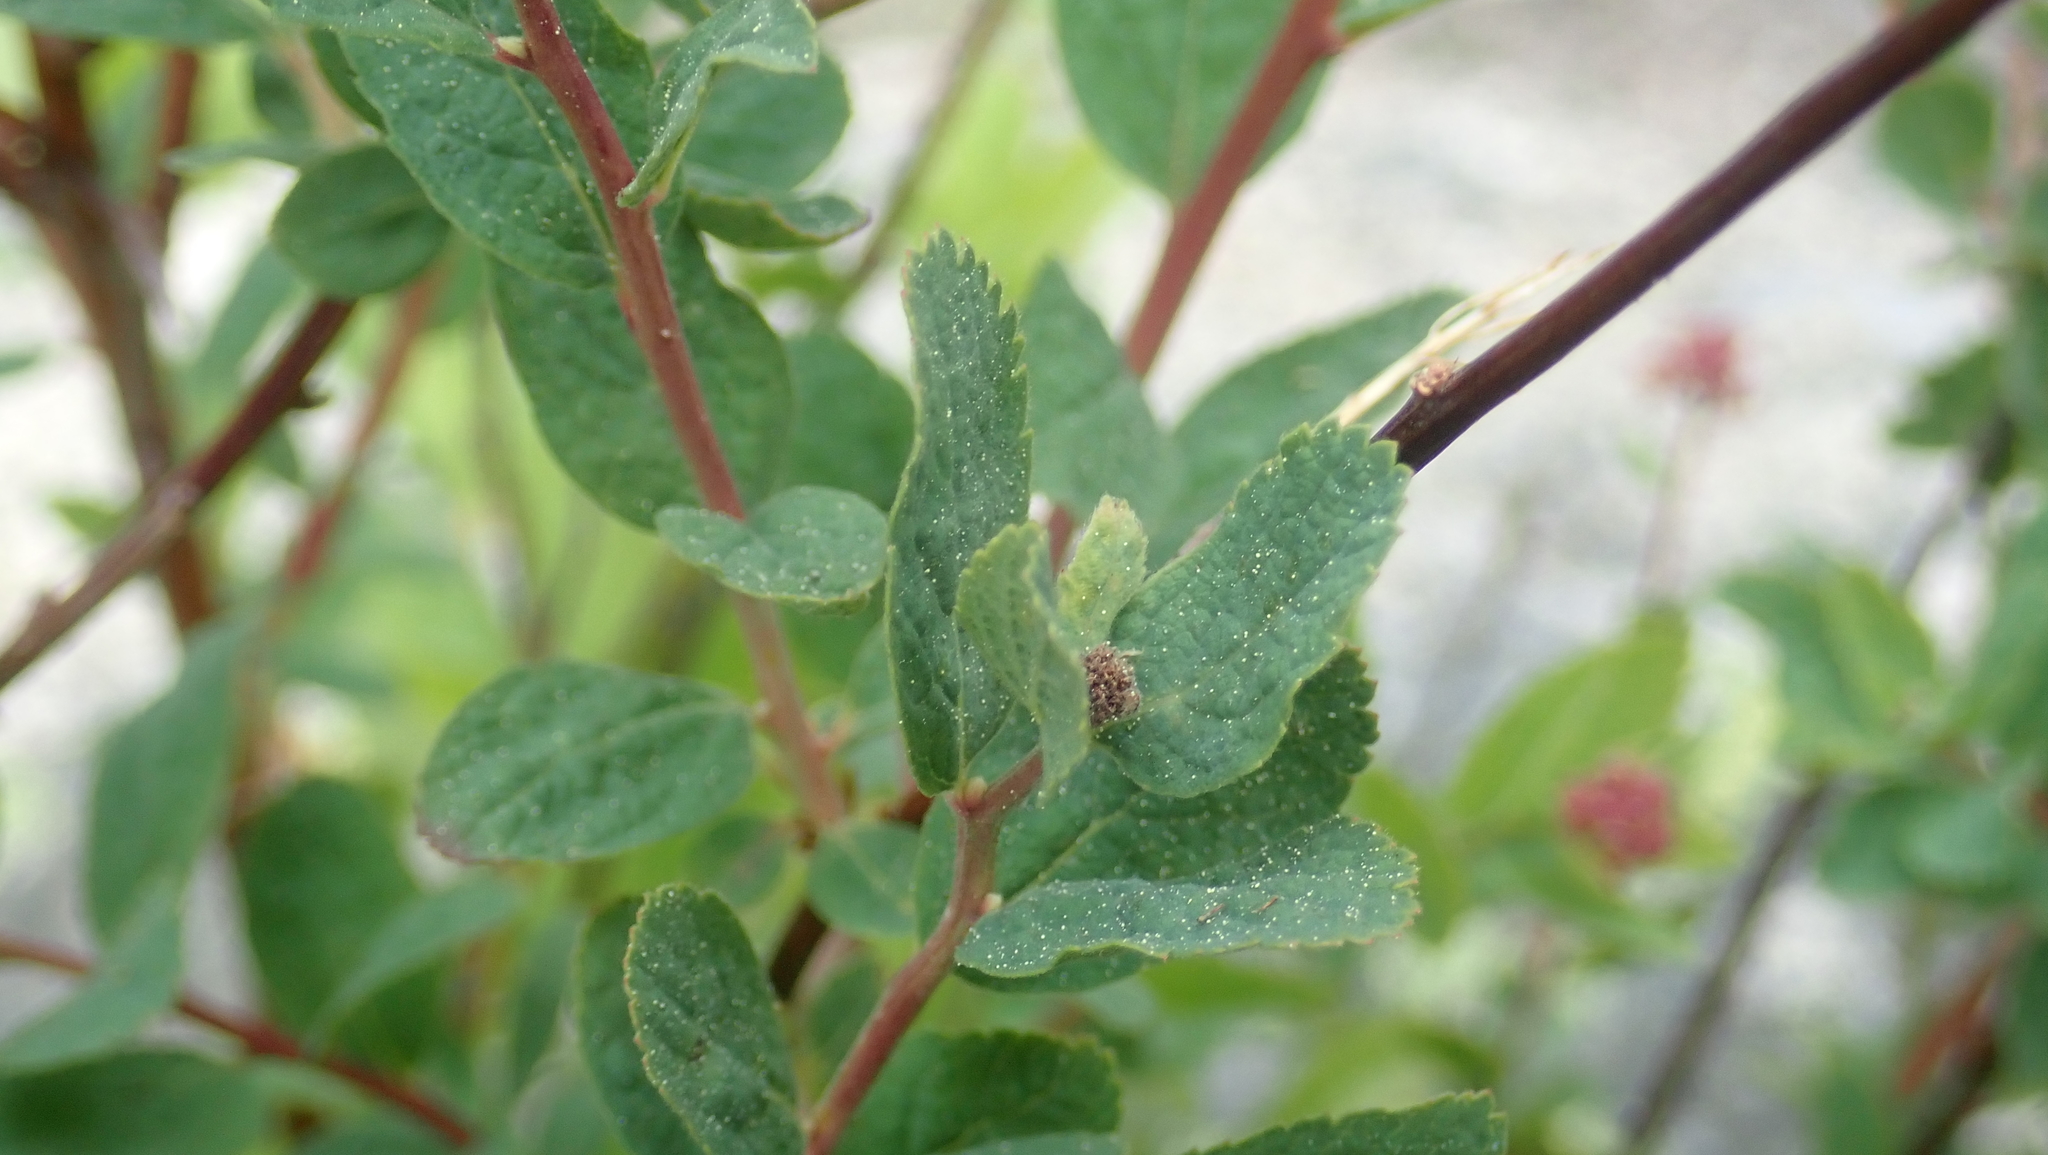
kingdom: Plantae
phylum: Tracheophyta
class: Magnoliopsida
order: Rosales
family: Rosaceae
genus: Spiraea
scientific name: Spiraea splendens
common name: Subalpine meadowsweet
